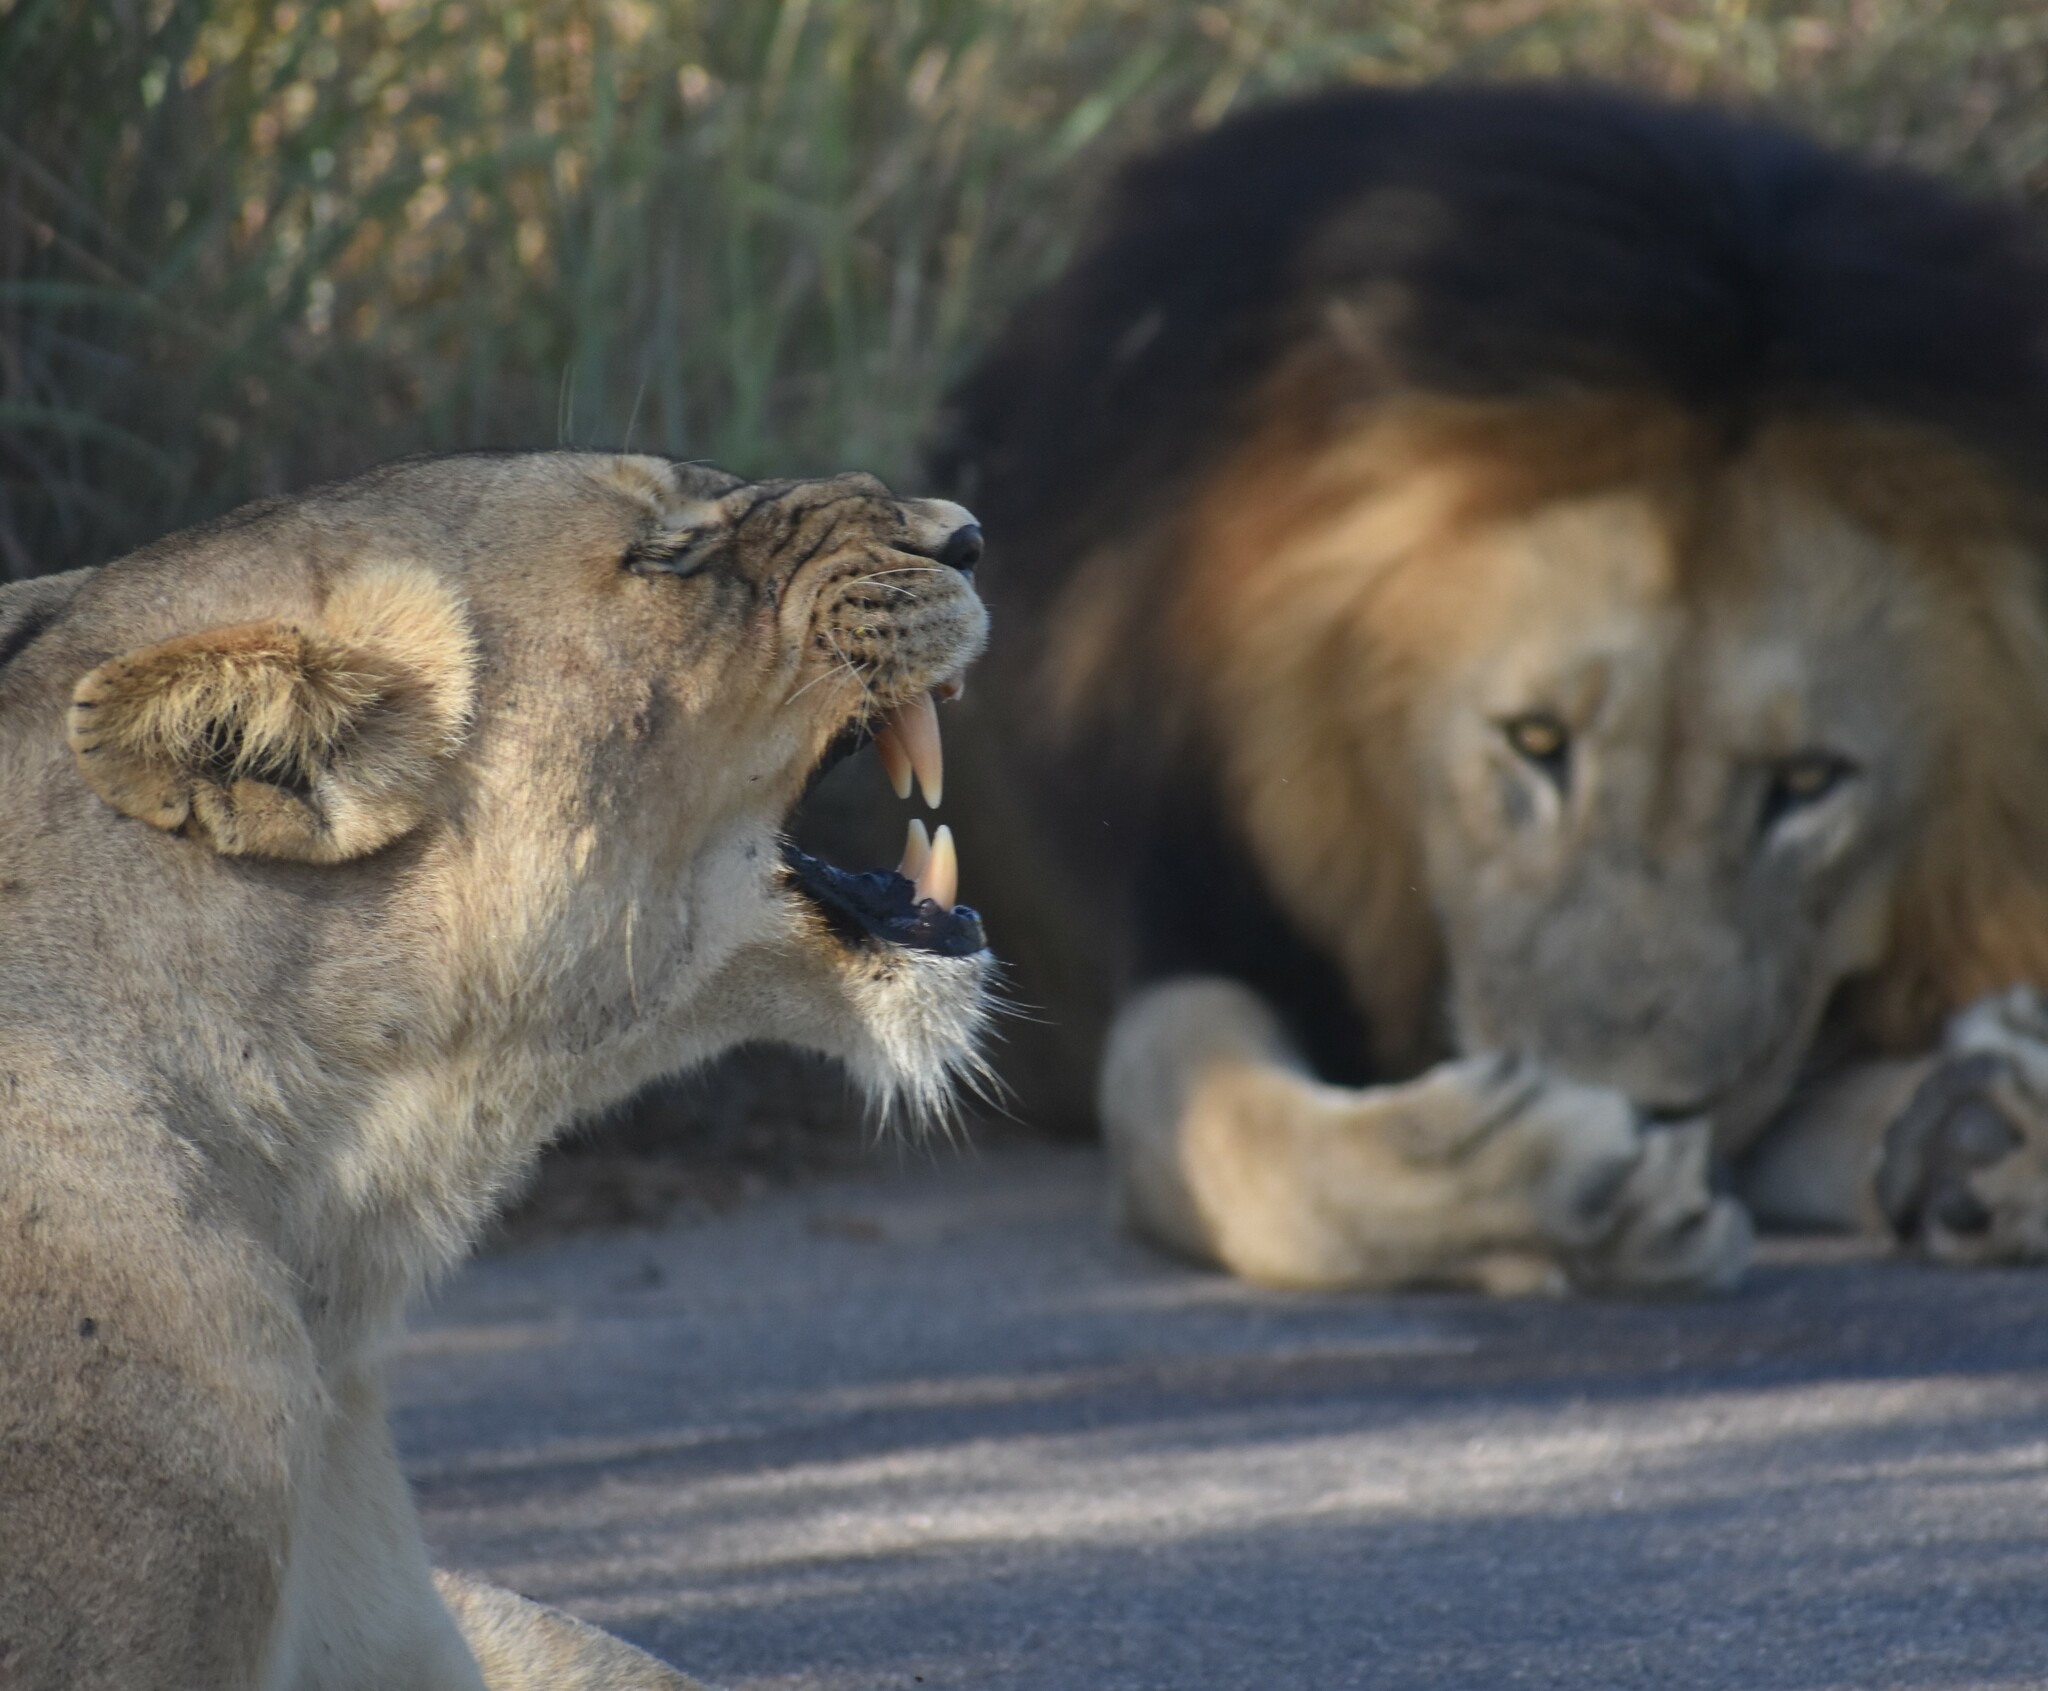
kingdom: Animalia
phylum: Chordata
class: Mammalia
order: Carnivora
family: Felidae
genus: Panthera
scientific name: Panthera leo
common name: Lion
